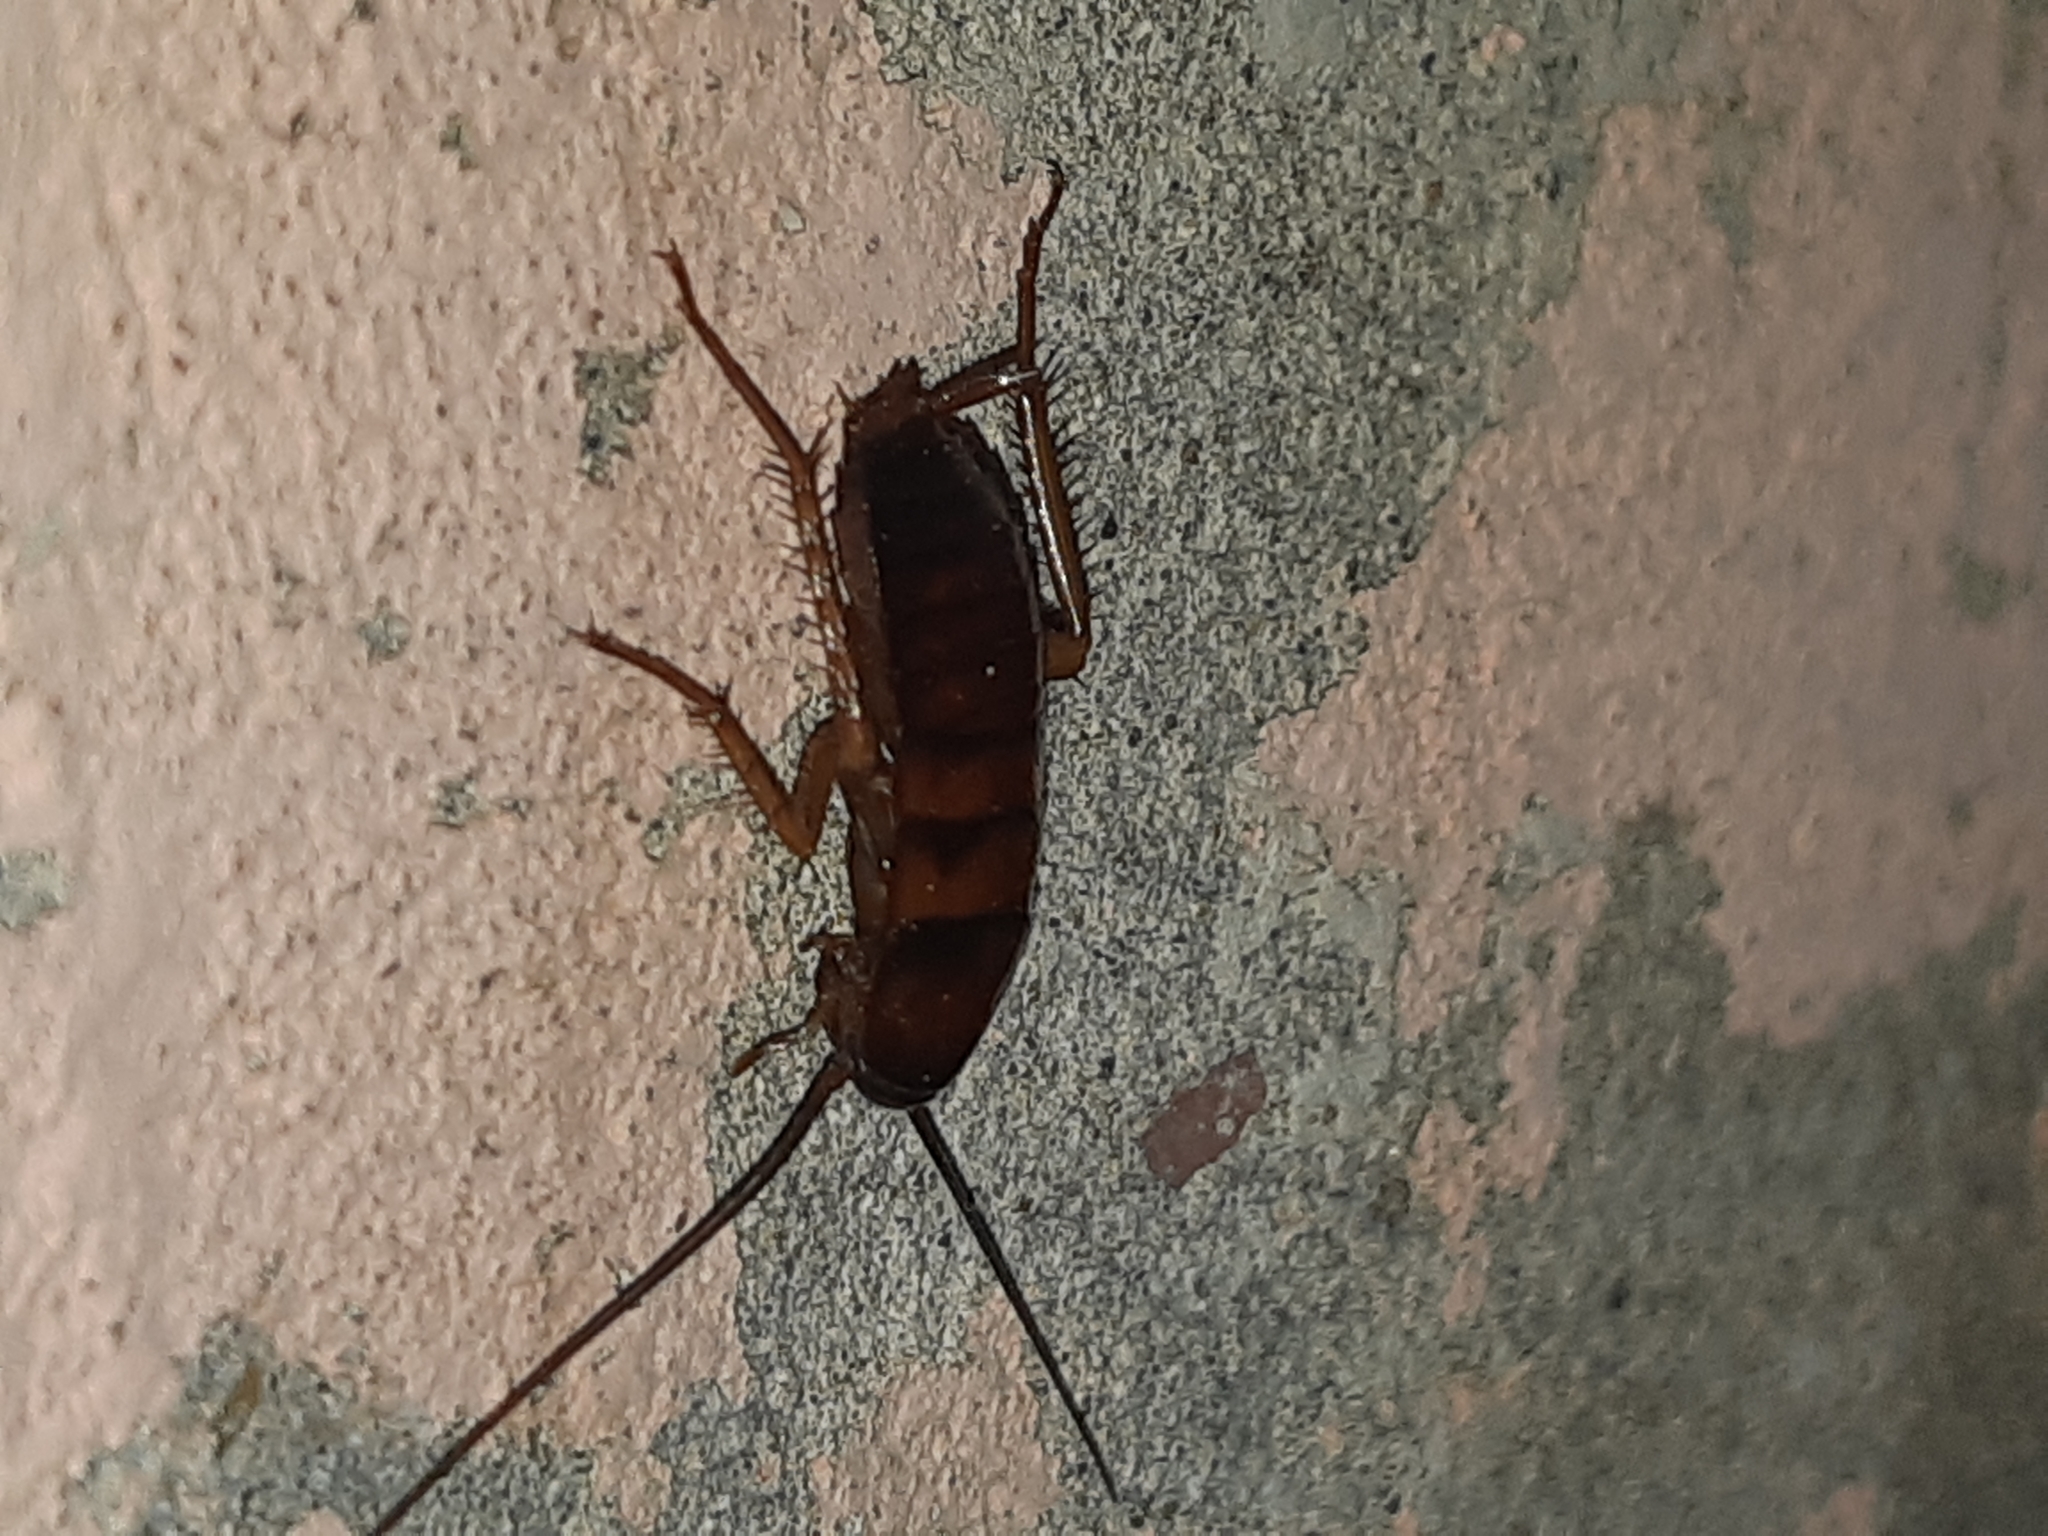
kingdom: Animalia
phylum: Arthropoda
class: Insecta
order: Blattodea
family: Blattidae
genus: Periplaneta
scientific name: Periplaneta americana
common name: American cockroach
